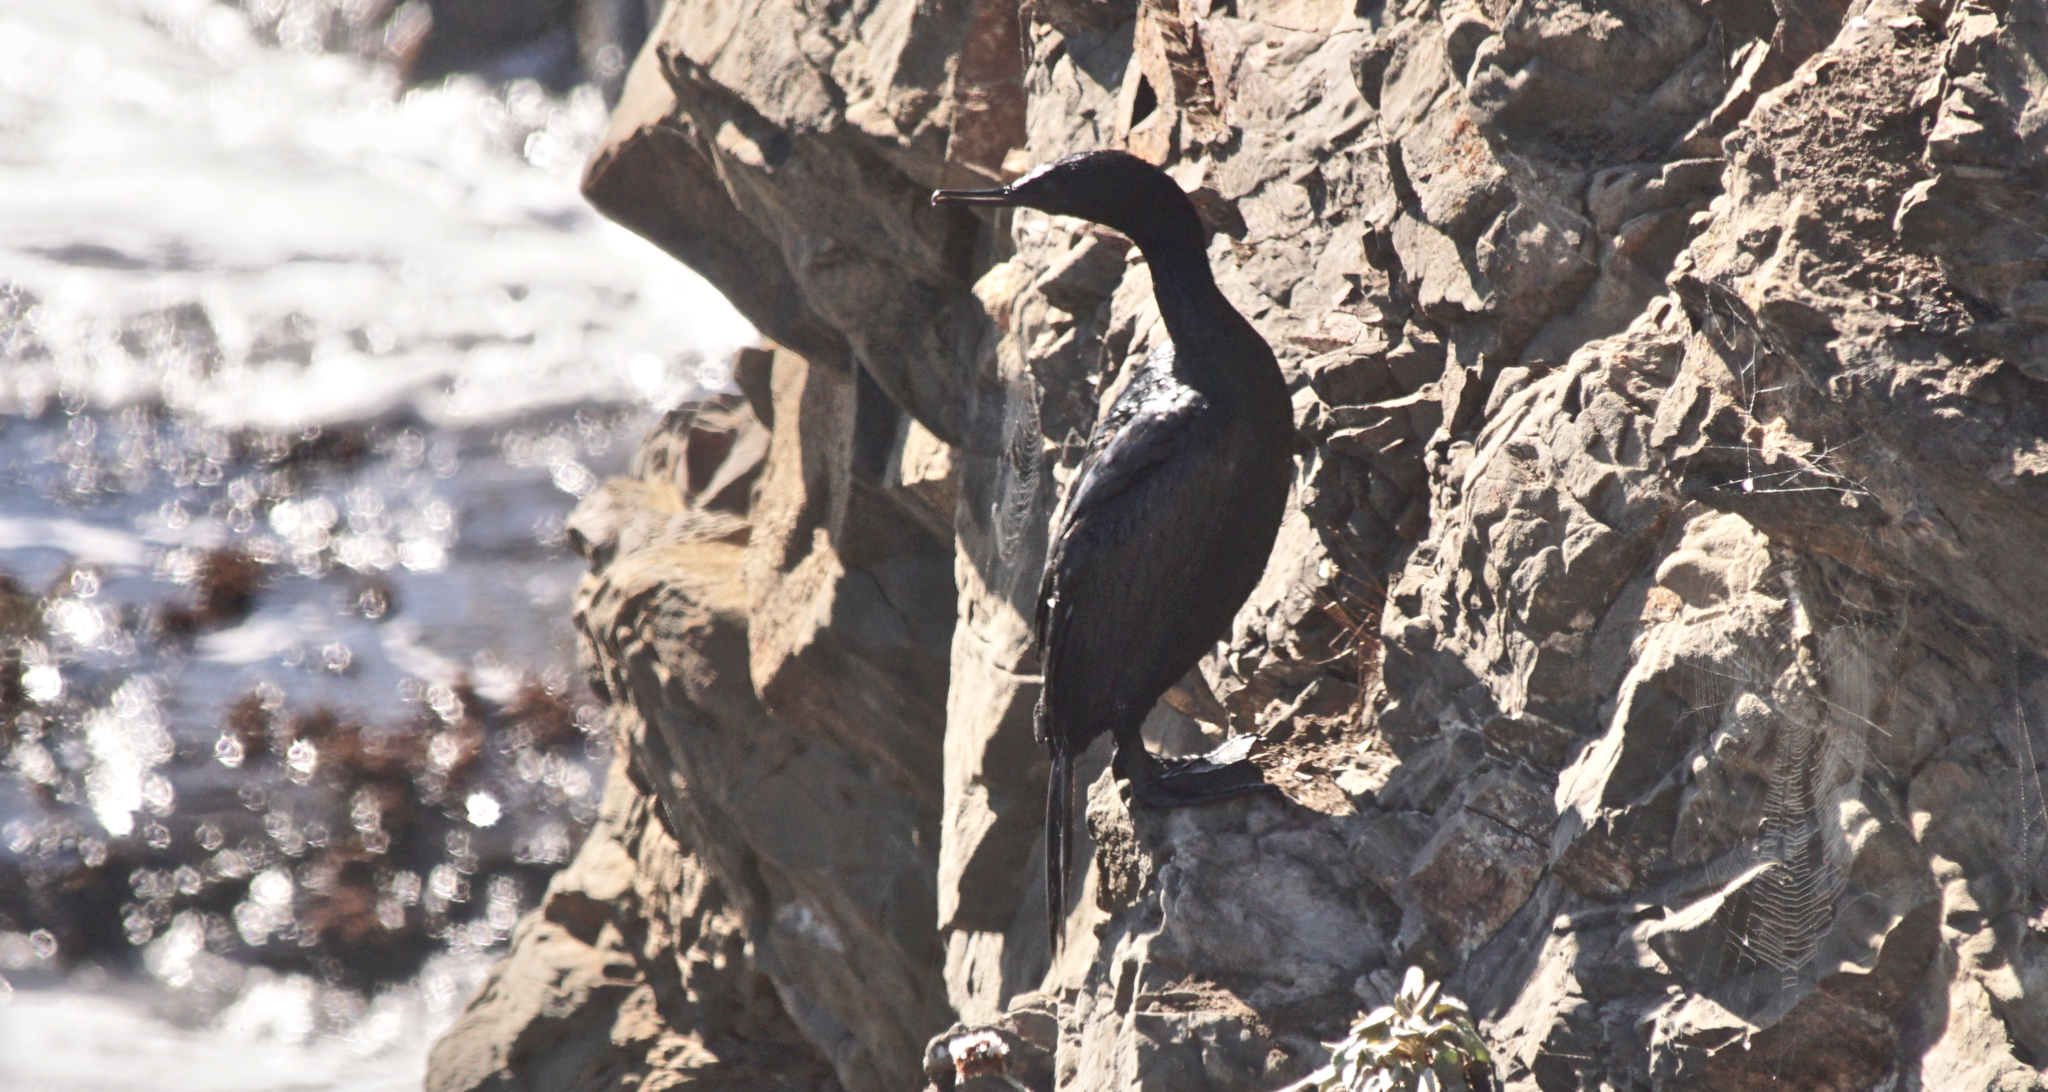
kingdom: Animalia
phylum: Chordata
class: Aves
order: Suliformes
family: Phalacrocoracidae
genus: Phalacrocorax
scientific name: Phalacrocorax pelagicus
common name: Pelagic cormorant
